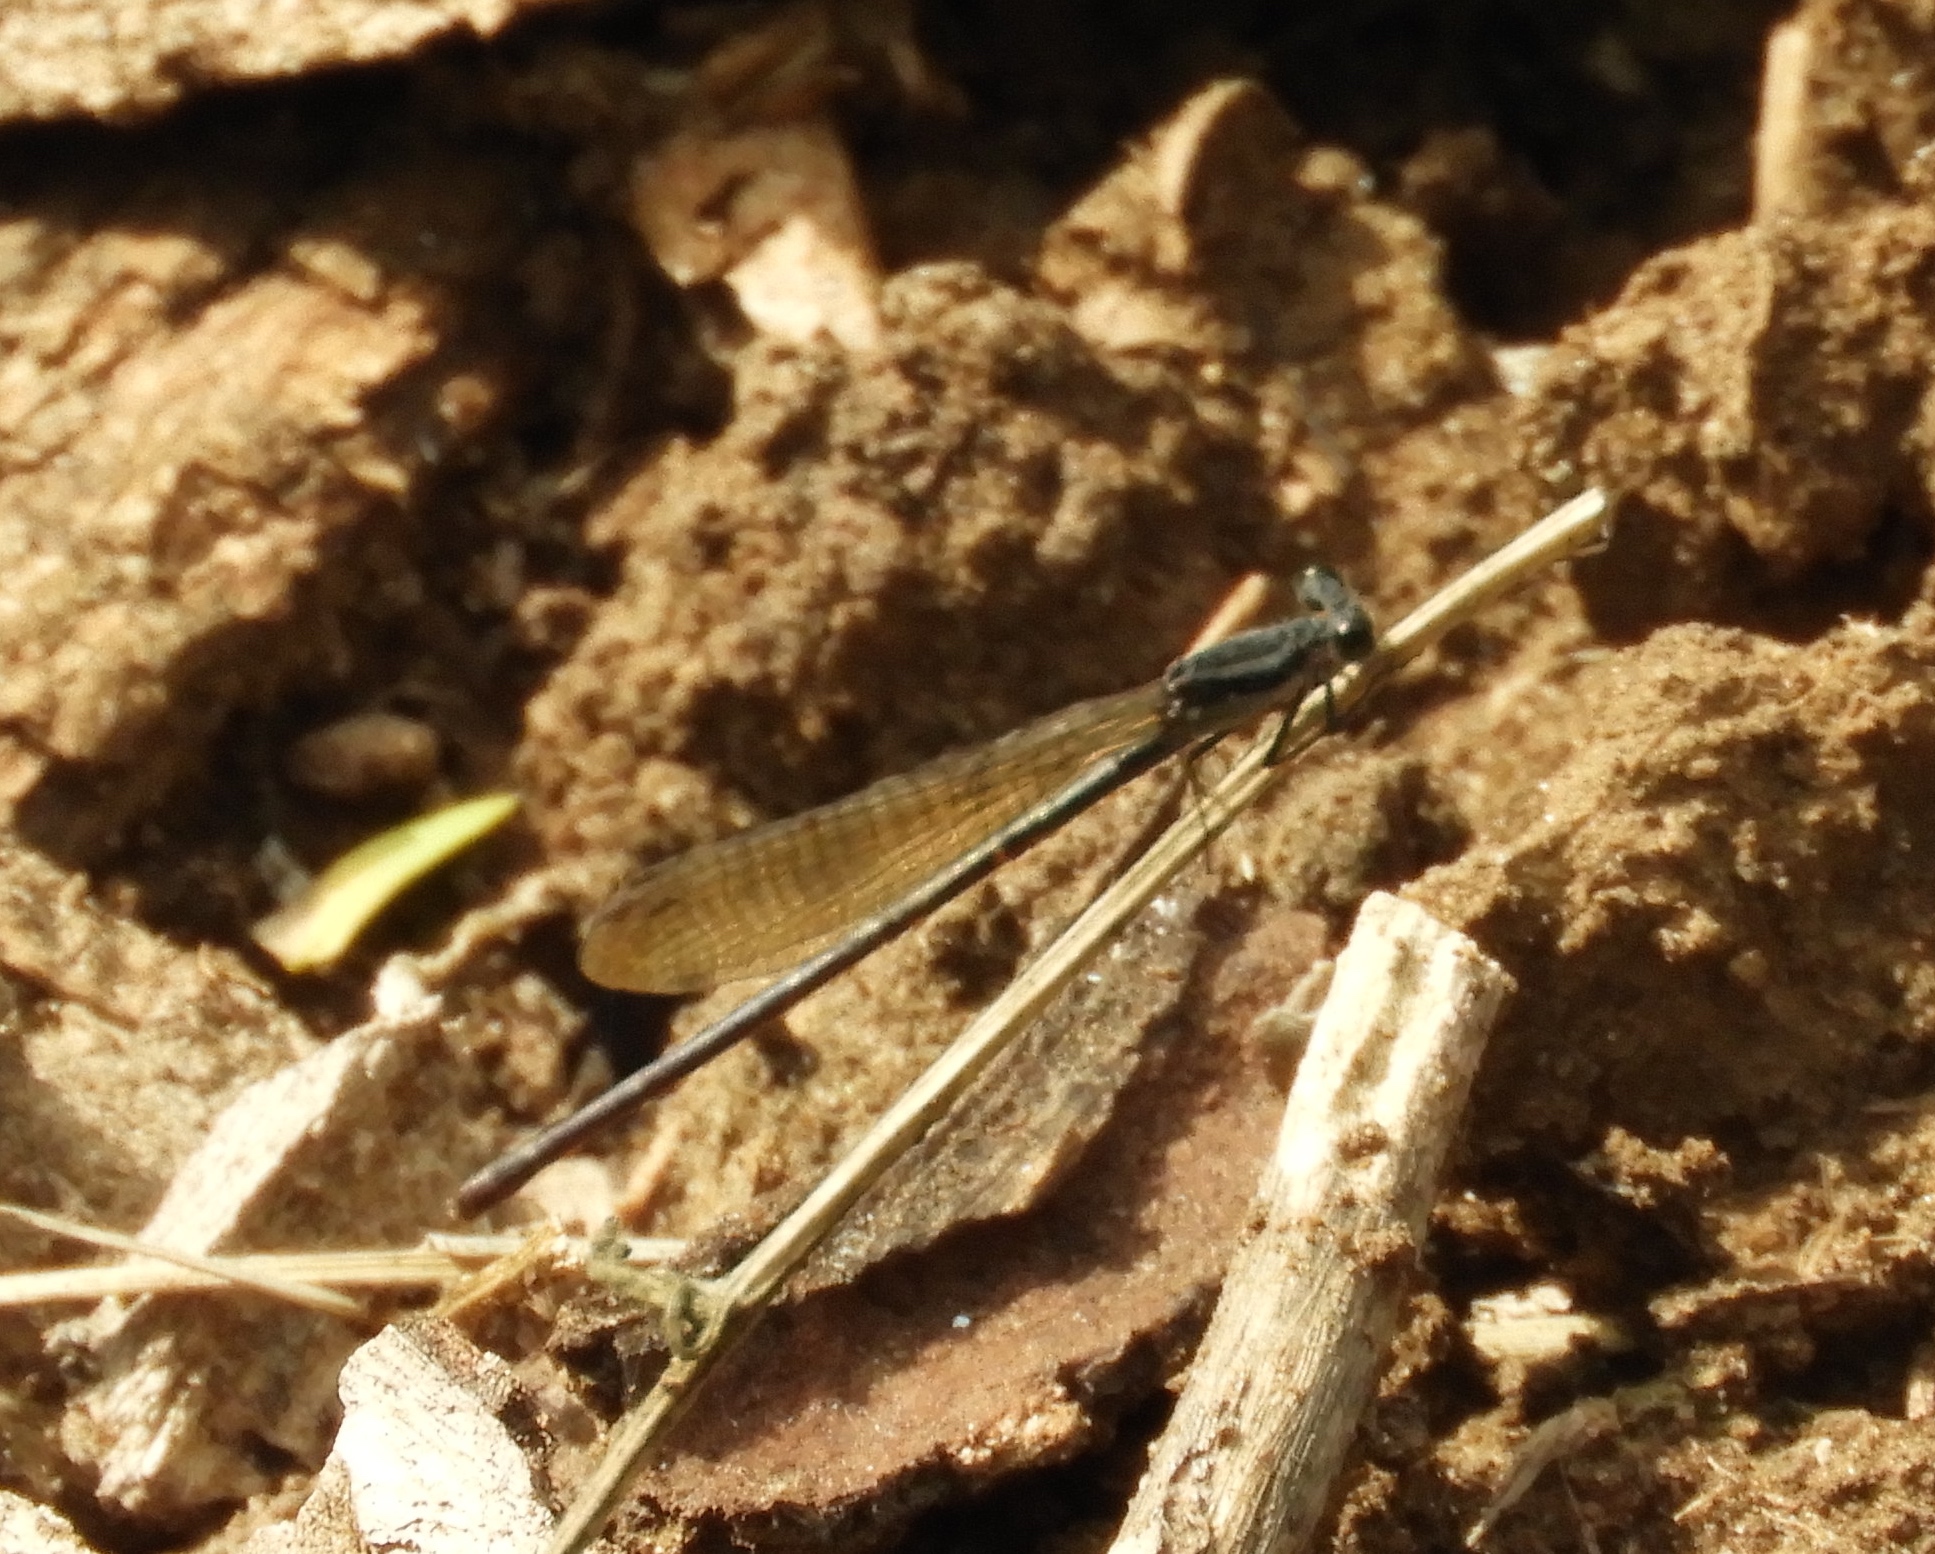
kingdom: Animalia
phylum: Arthropoda
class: Insecta
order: Odonata
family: Coenagrionidae
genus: Argia
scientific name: Argia tezpi
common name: Tezpi dancer
